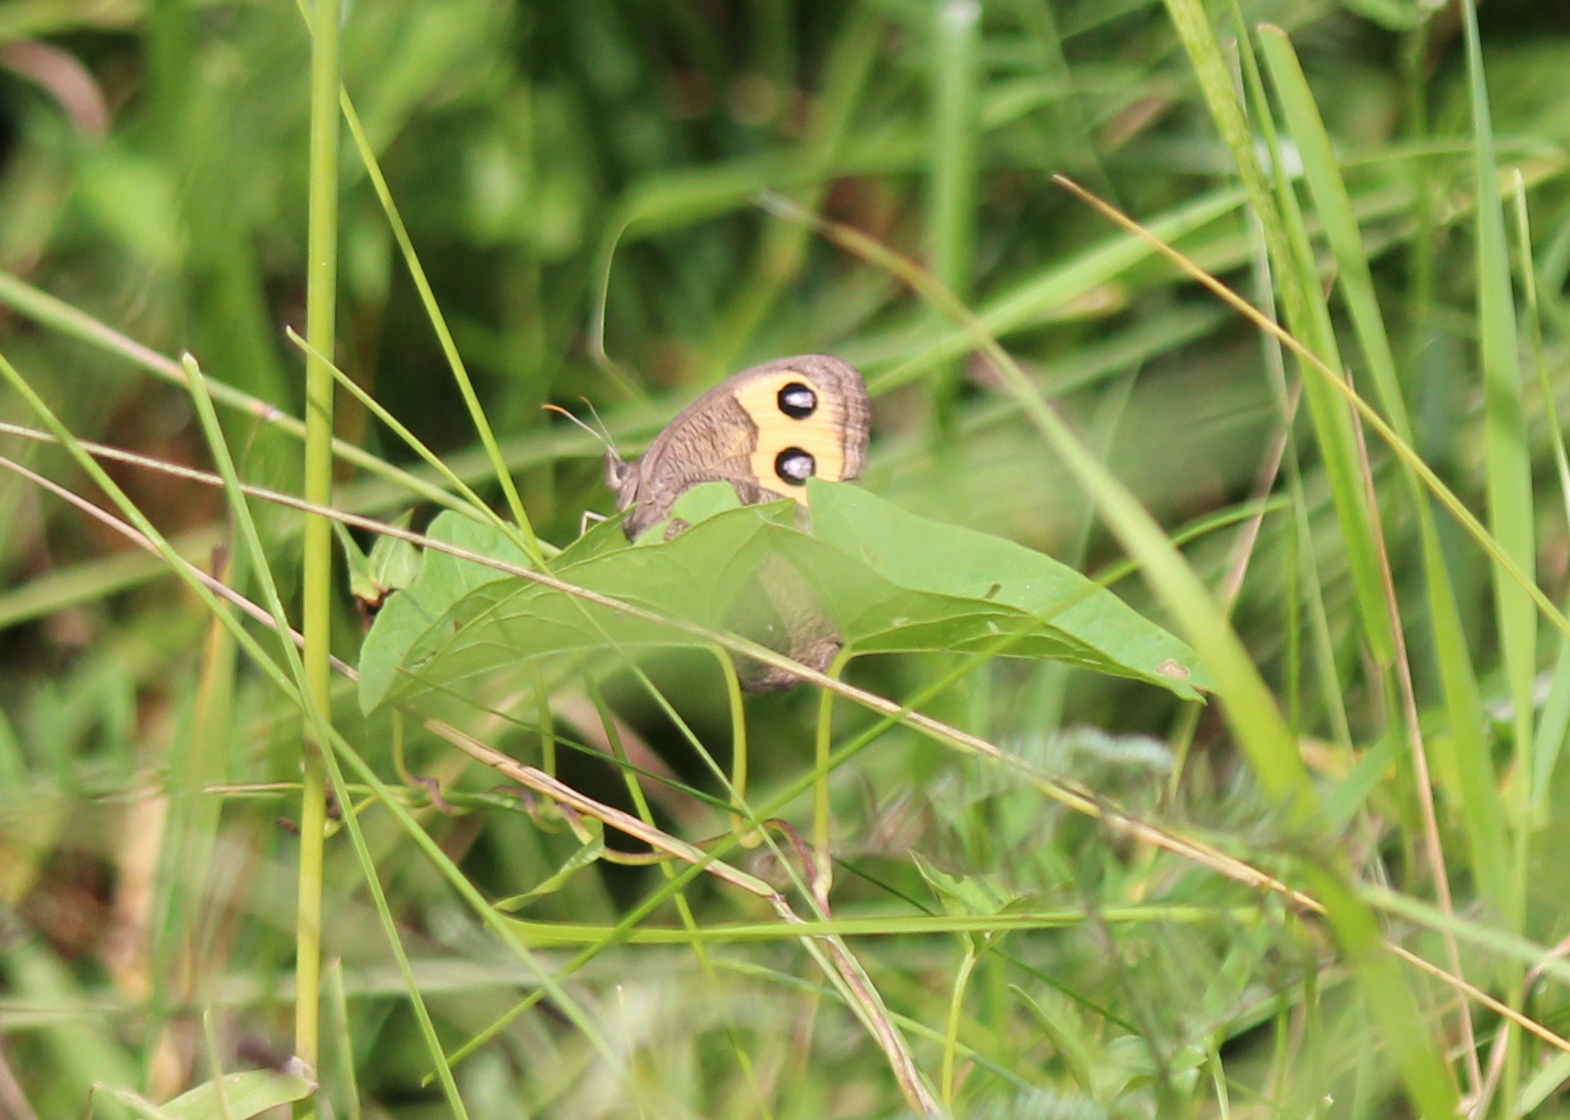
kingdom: Animalia
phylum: Arthropoda
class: Insecta
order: Lepidoptera
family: Nymphalidae
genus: Cercyonis
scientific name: Cercyonis pegala
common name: Common wood-nymph
